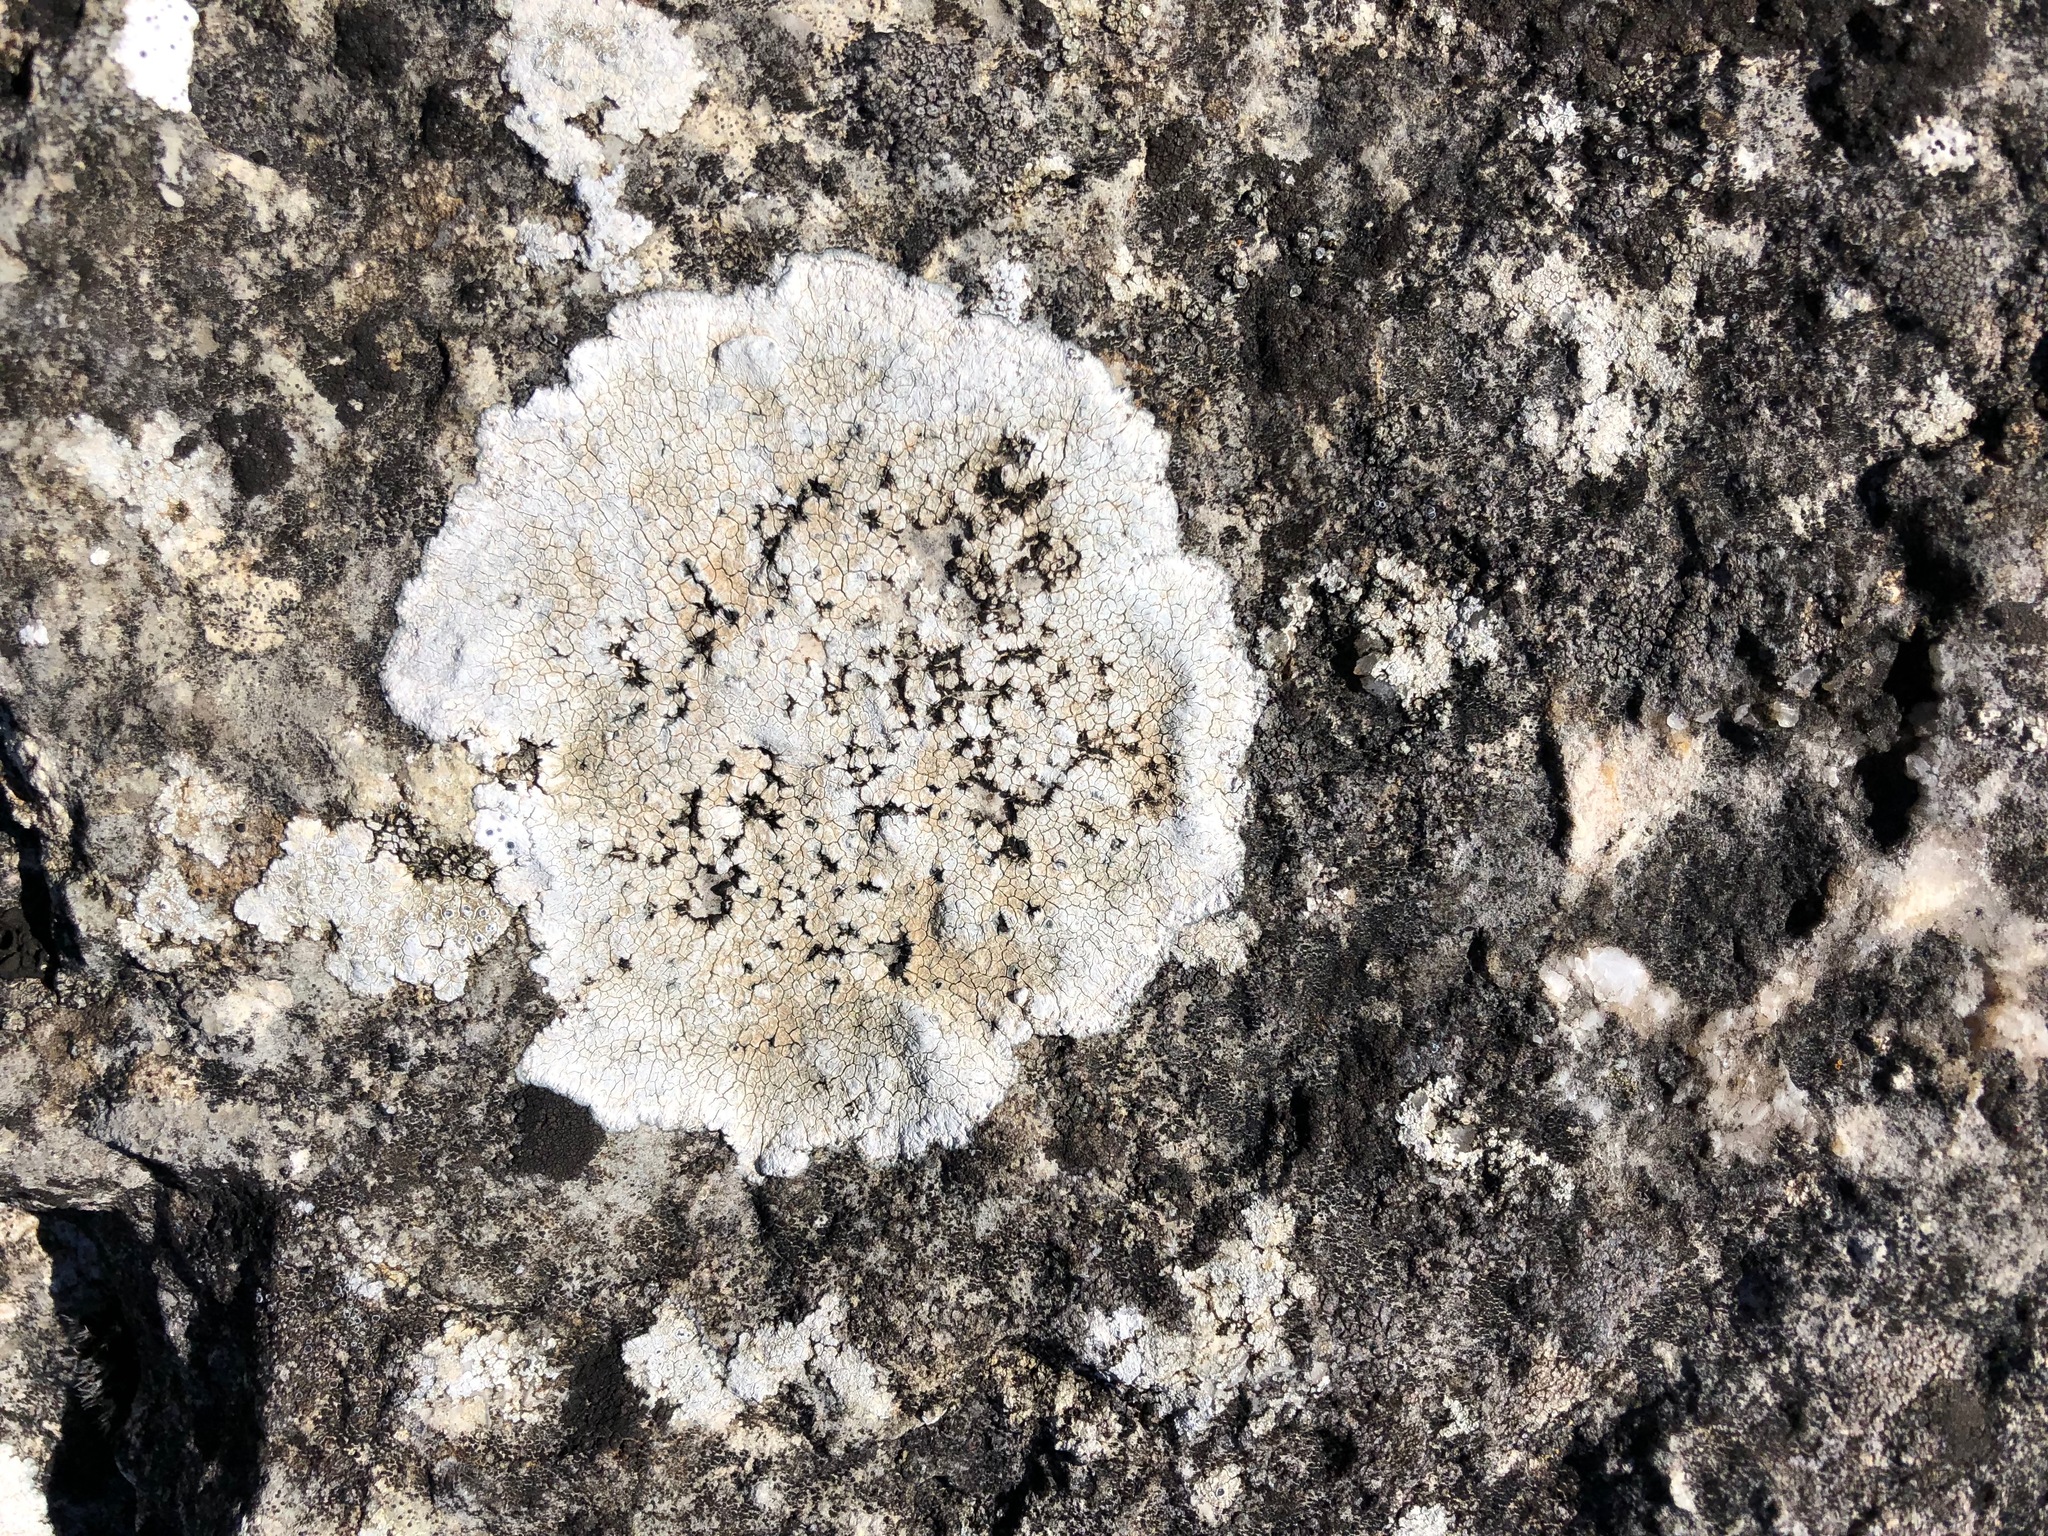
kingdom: Fungi
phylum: Ascomycota
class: Lecanoromycetes
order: Lecanorales
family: Lecanoraceae
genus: Protoparmeliopsis
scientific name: Protoparmeliopsis muralis
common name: Stonewall rim lichen
